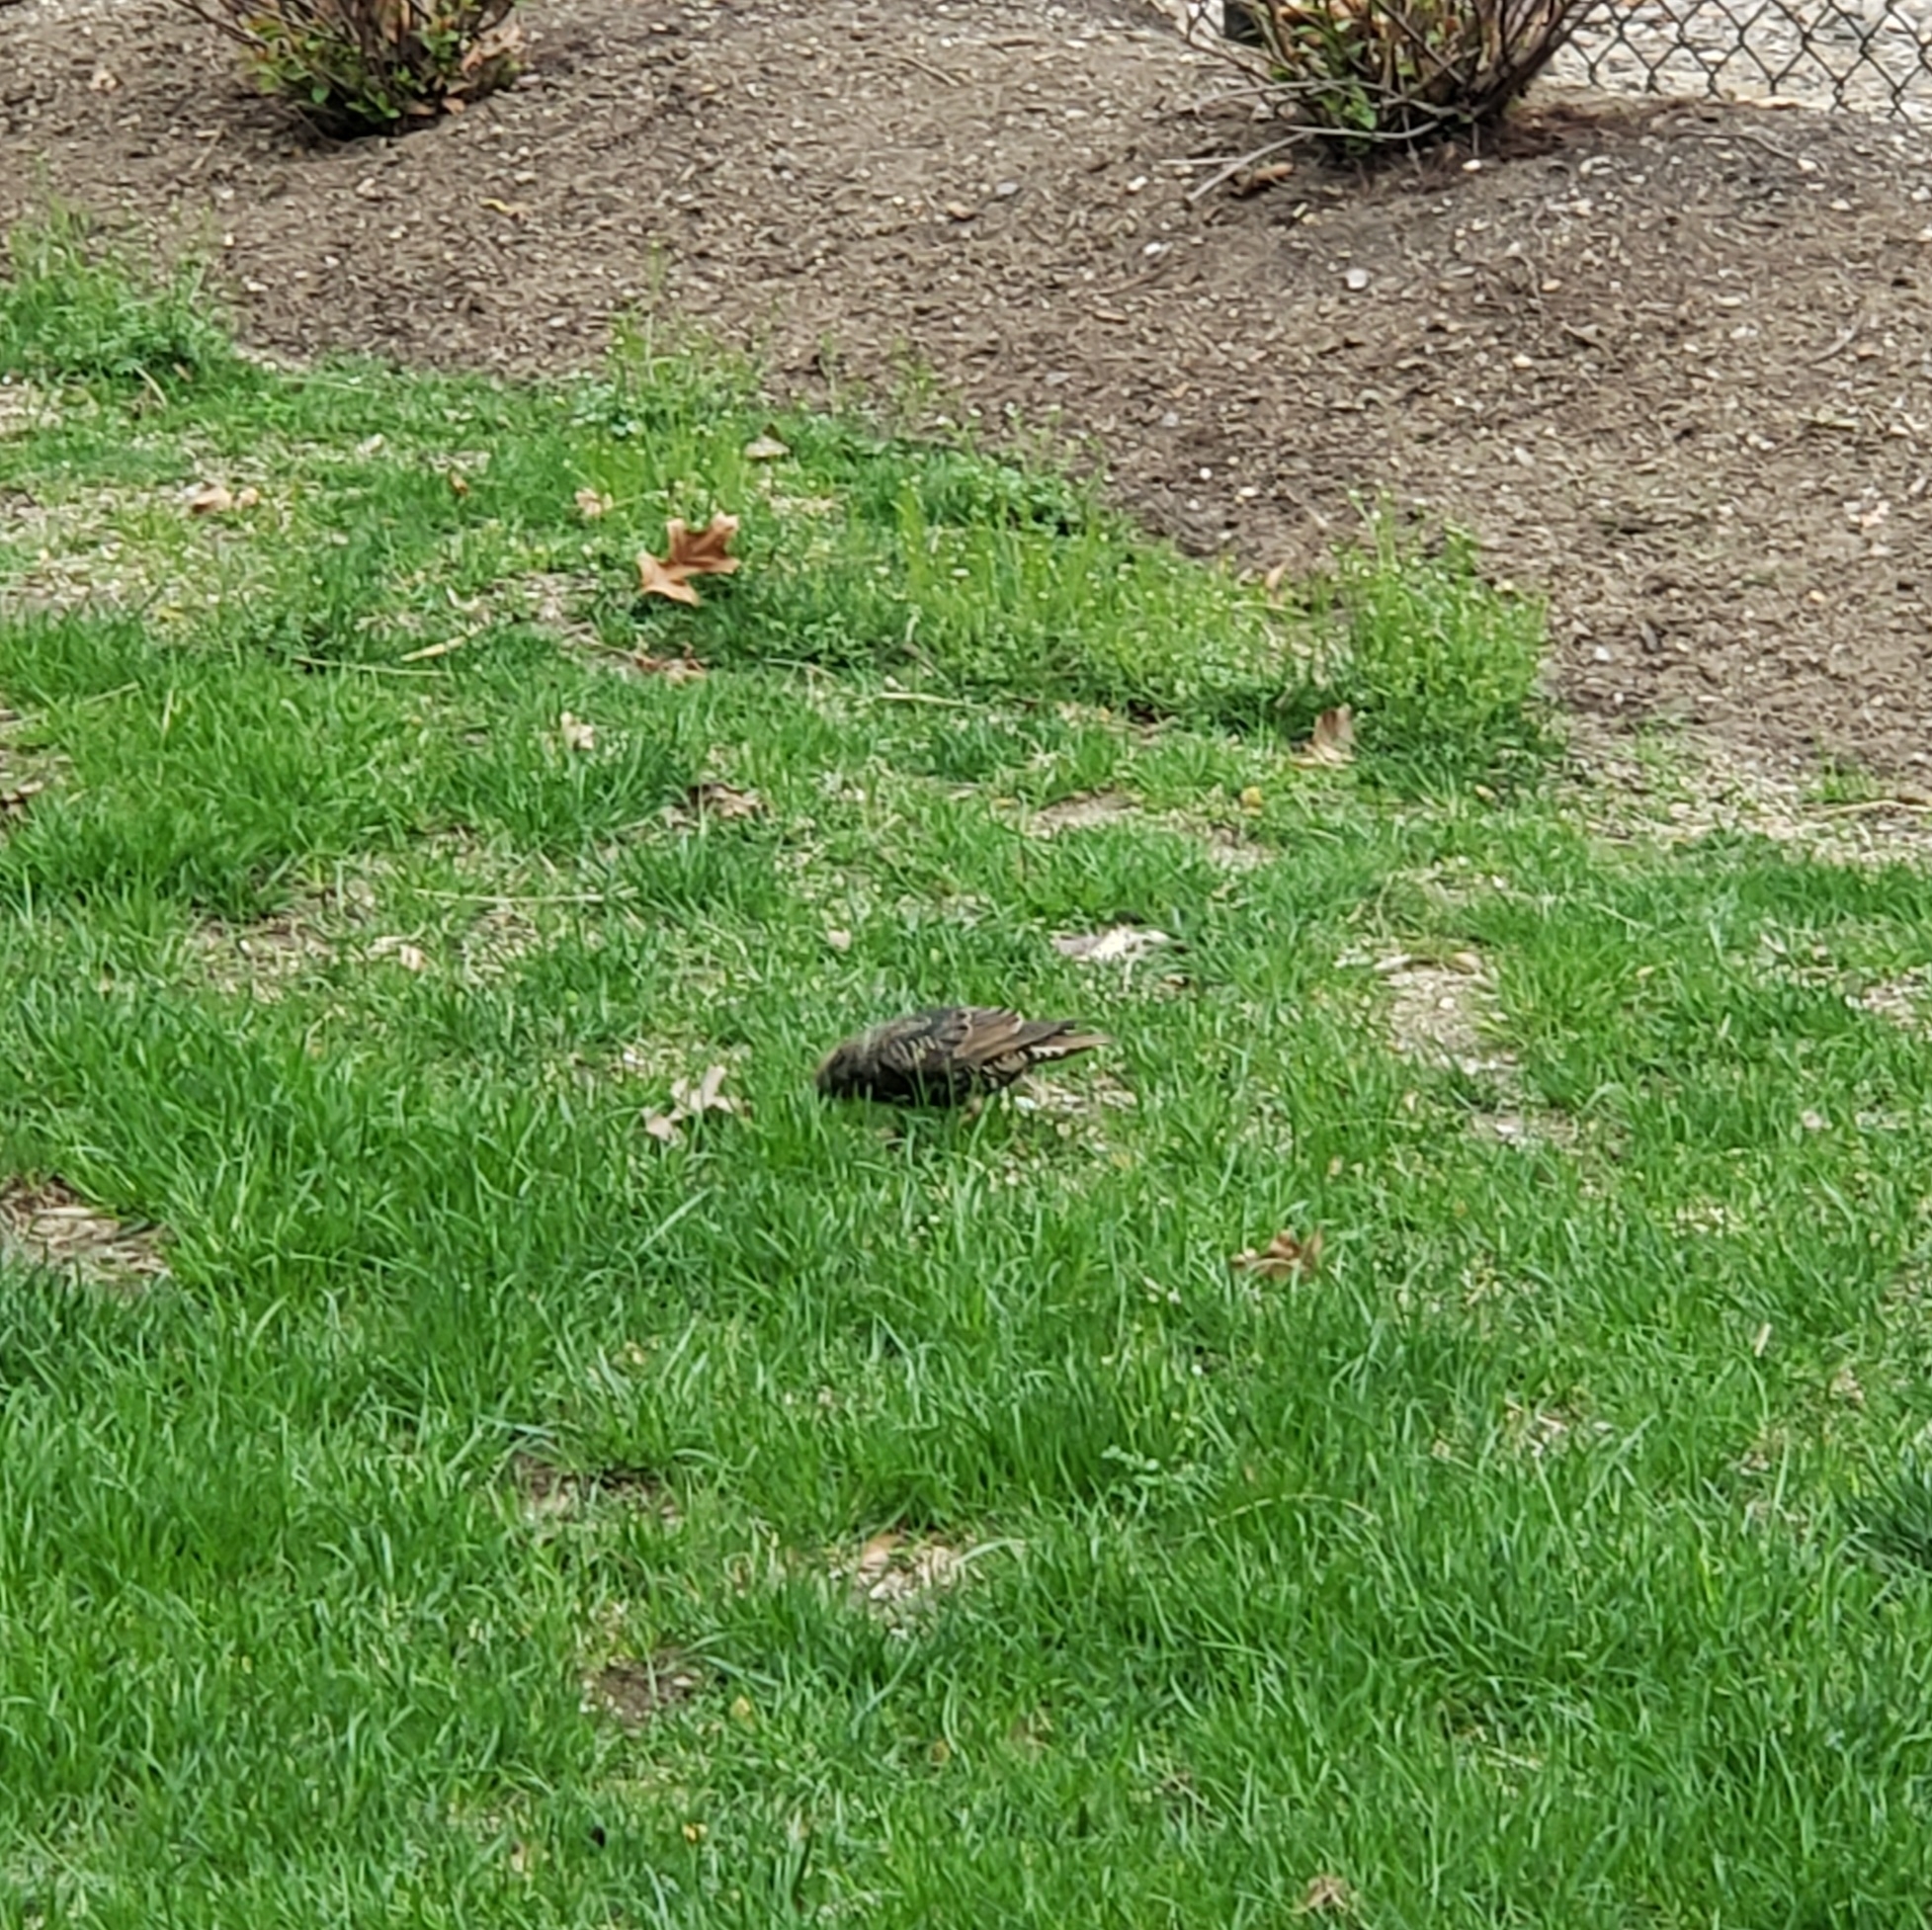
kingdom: Animalia
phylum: Chordata
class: Aves
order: Passeriformes
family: Sturnidae
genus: Sturnus
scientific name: Sturnus vulgaris
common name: Common starling
